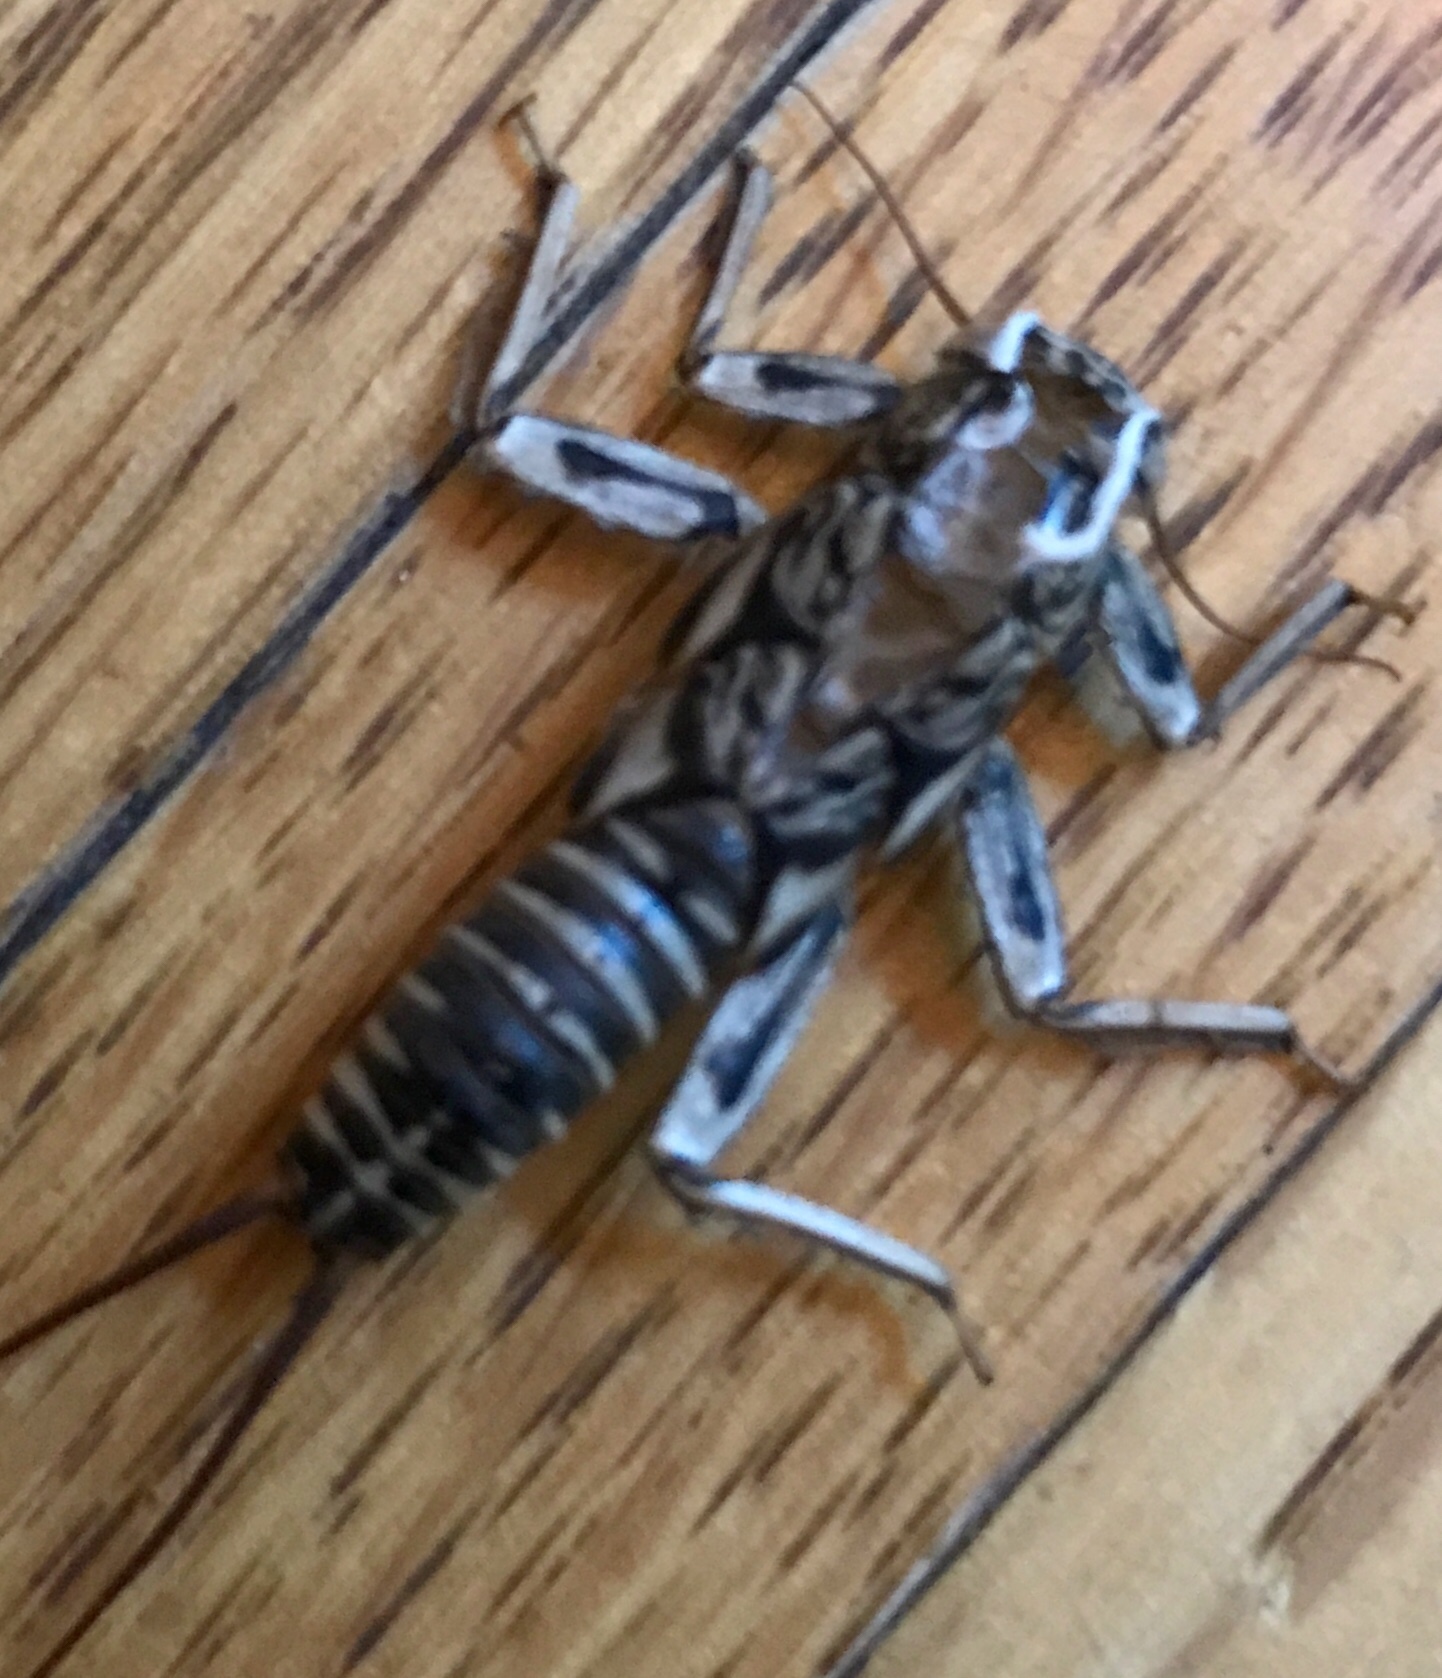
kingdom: Animalia
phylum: Arthropoda
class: Insecta
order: Plecoptera
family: Perlidae
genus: Paragnetina
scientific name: Paragnetina immarginata
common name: Beautiful stone
